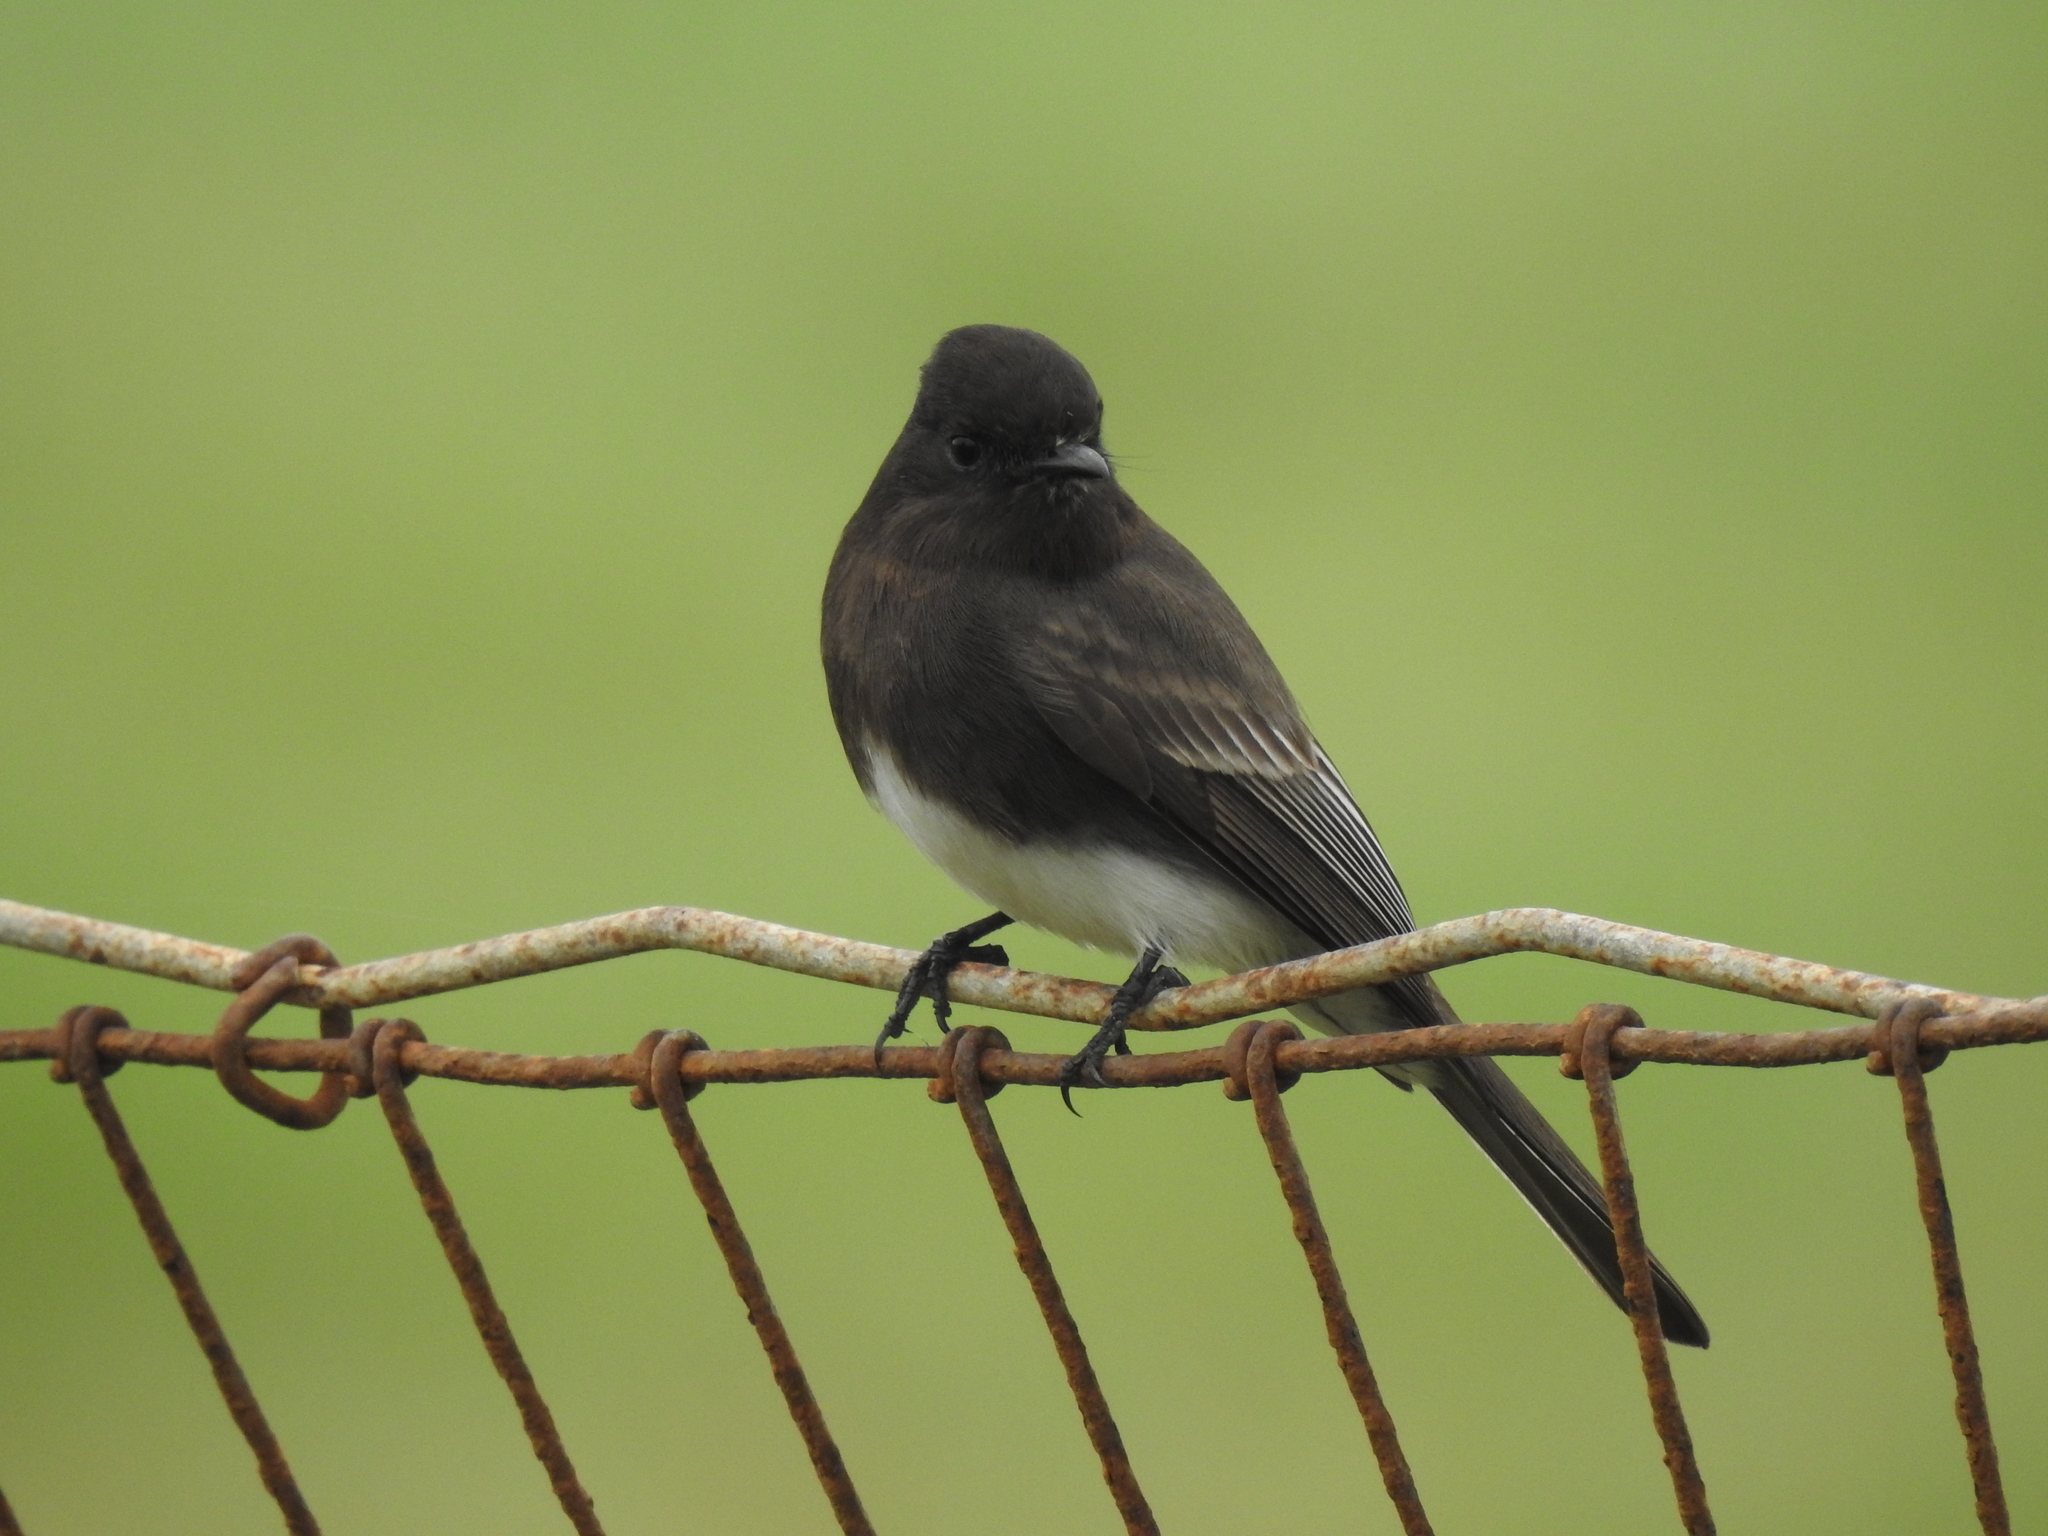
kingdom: Animalia
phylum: Chordata
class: Aves
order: Passeriformes
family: Tyrannidae
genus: Sayornis
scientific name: Sayornis nigricans
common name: Black phoebe
